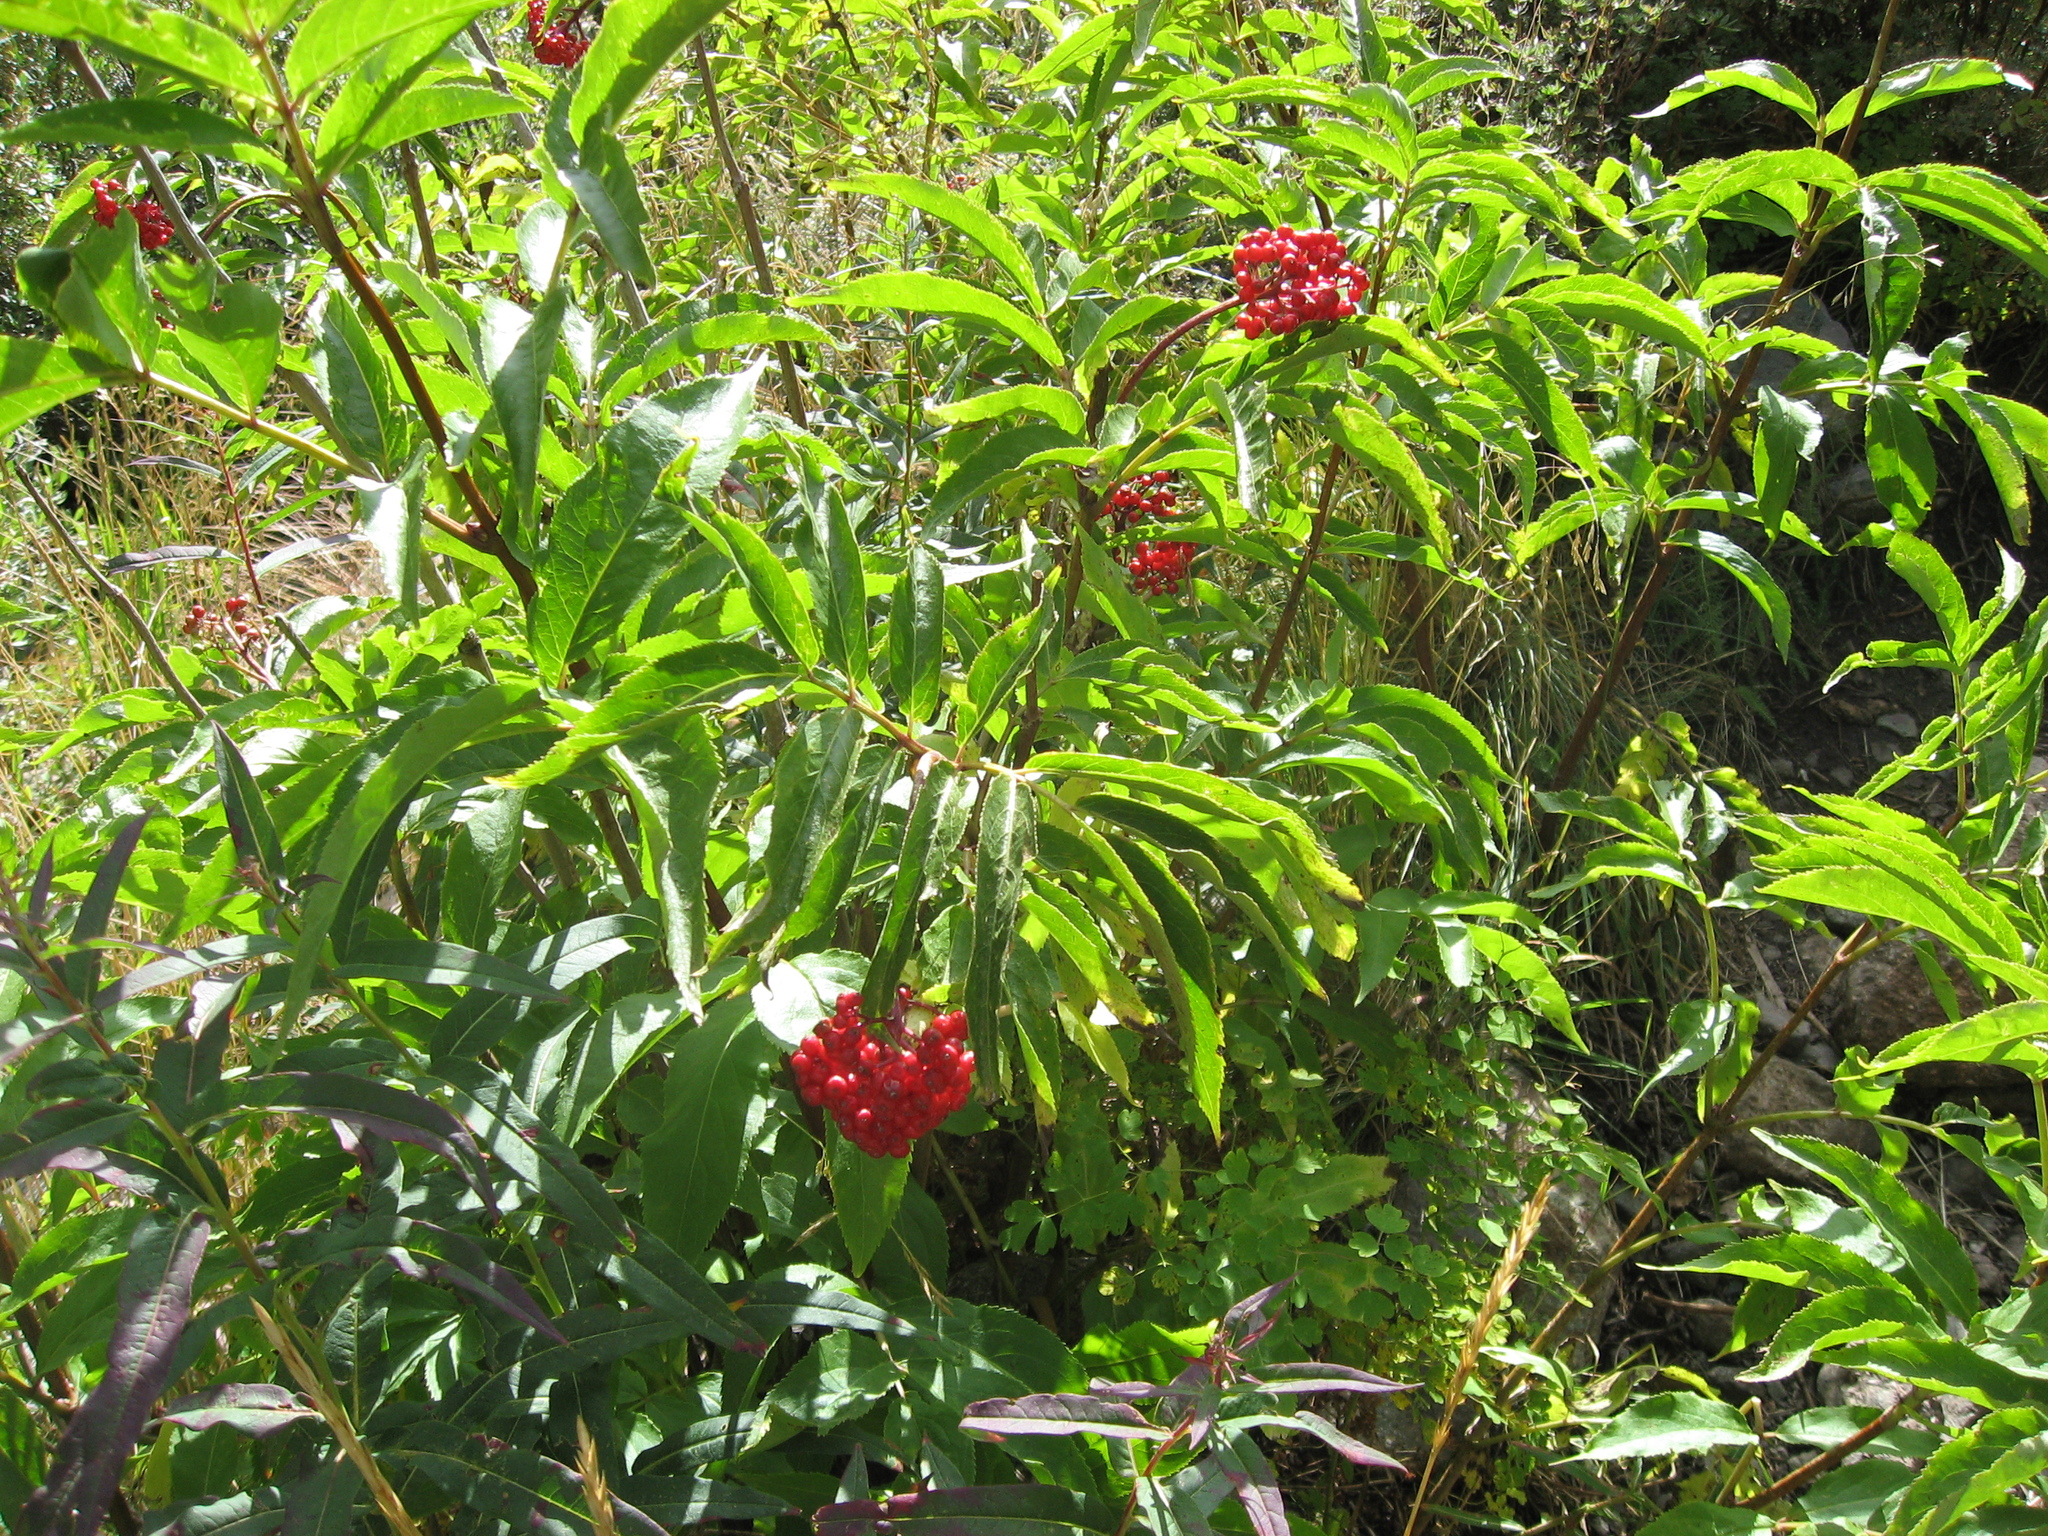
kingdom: Plantae
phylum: Tracheophyta
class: Magnoliopsida
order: Dipsacales
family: Viburnaceae
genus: Sambucus
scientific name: Sambucus racemosa
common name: Red-berried elder
